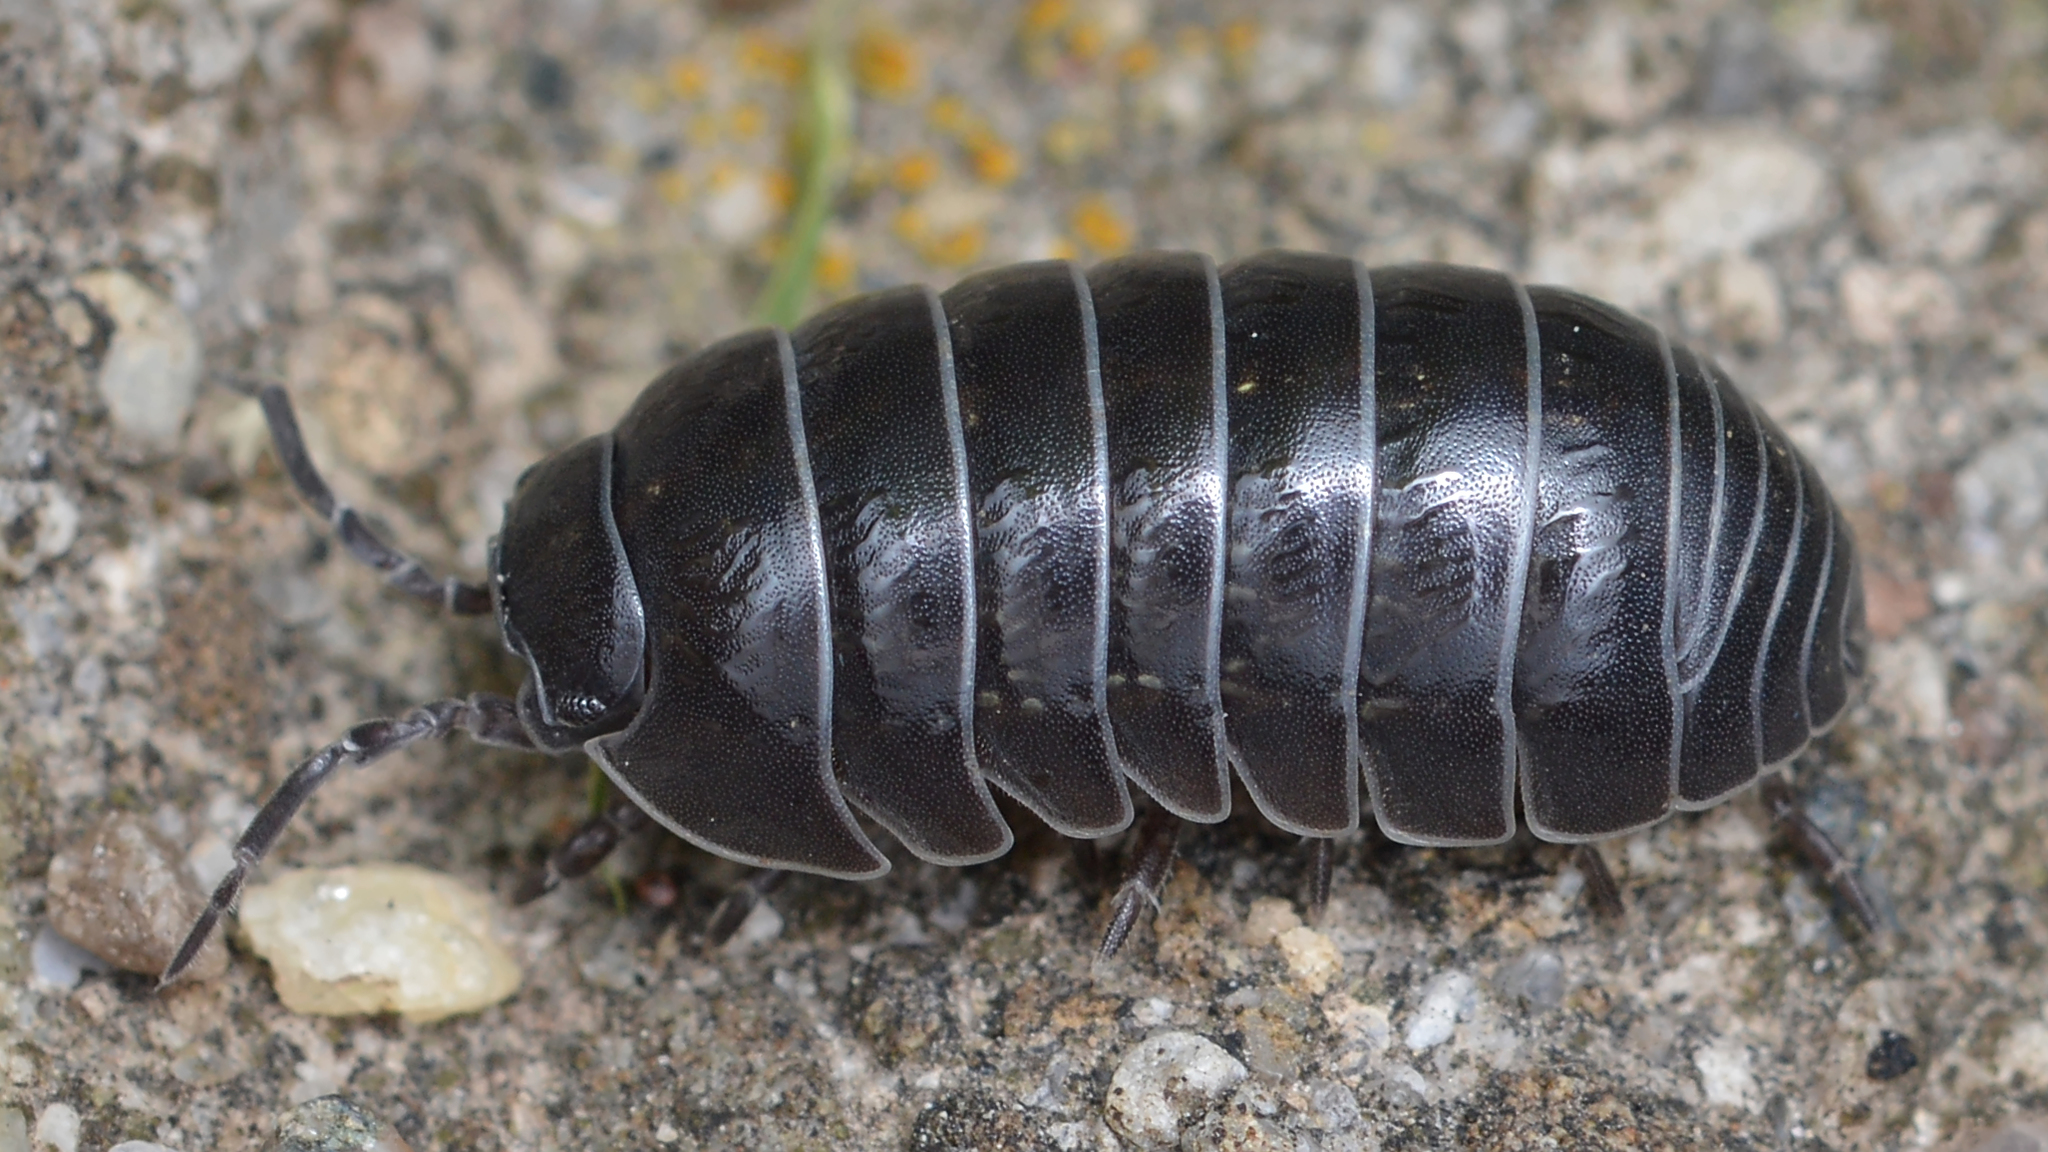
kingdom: Animalia
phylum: Arthropoda
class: Malacostraca
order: Isopoda
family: Armadillidiidae
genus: Armadillidium
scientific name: Armadillidium vulgare
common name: Common pill woodlouse
